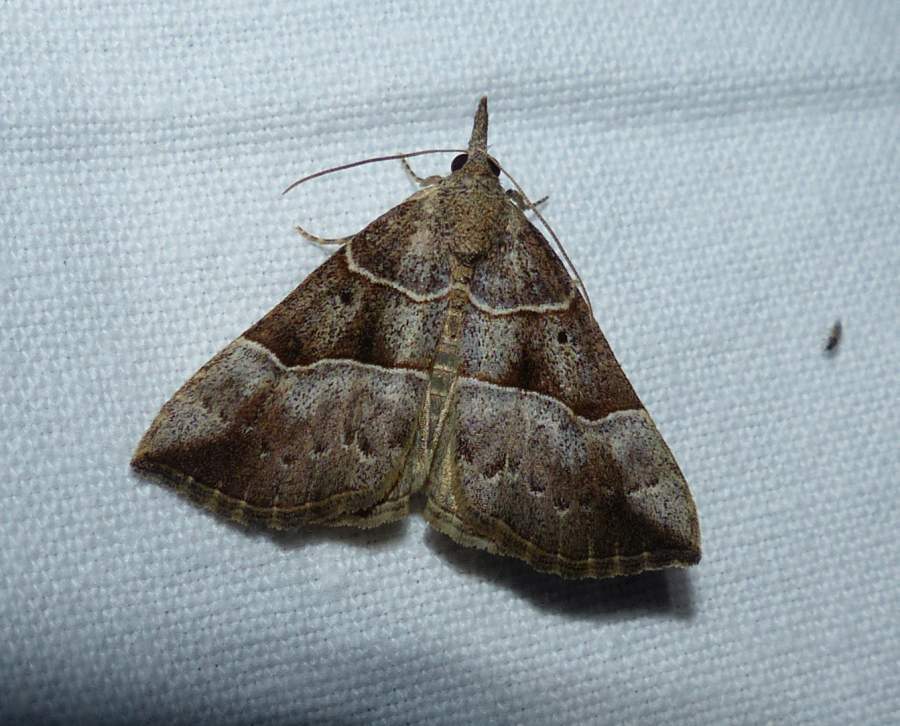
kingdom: Animalia
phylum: Arthropoda
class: Insecta
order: Lepidoptera
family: Erebidae
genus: Hypena
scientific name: Hypena deceptalis
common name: Deceptive snout
